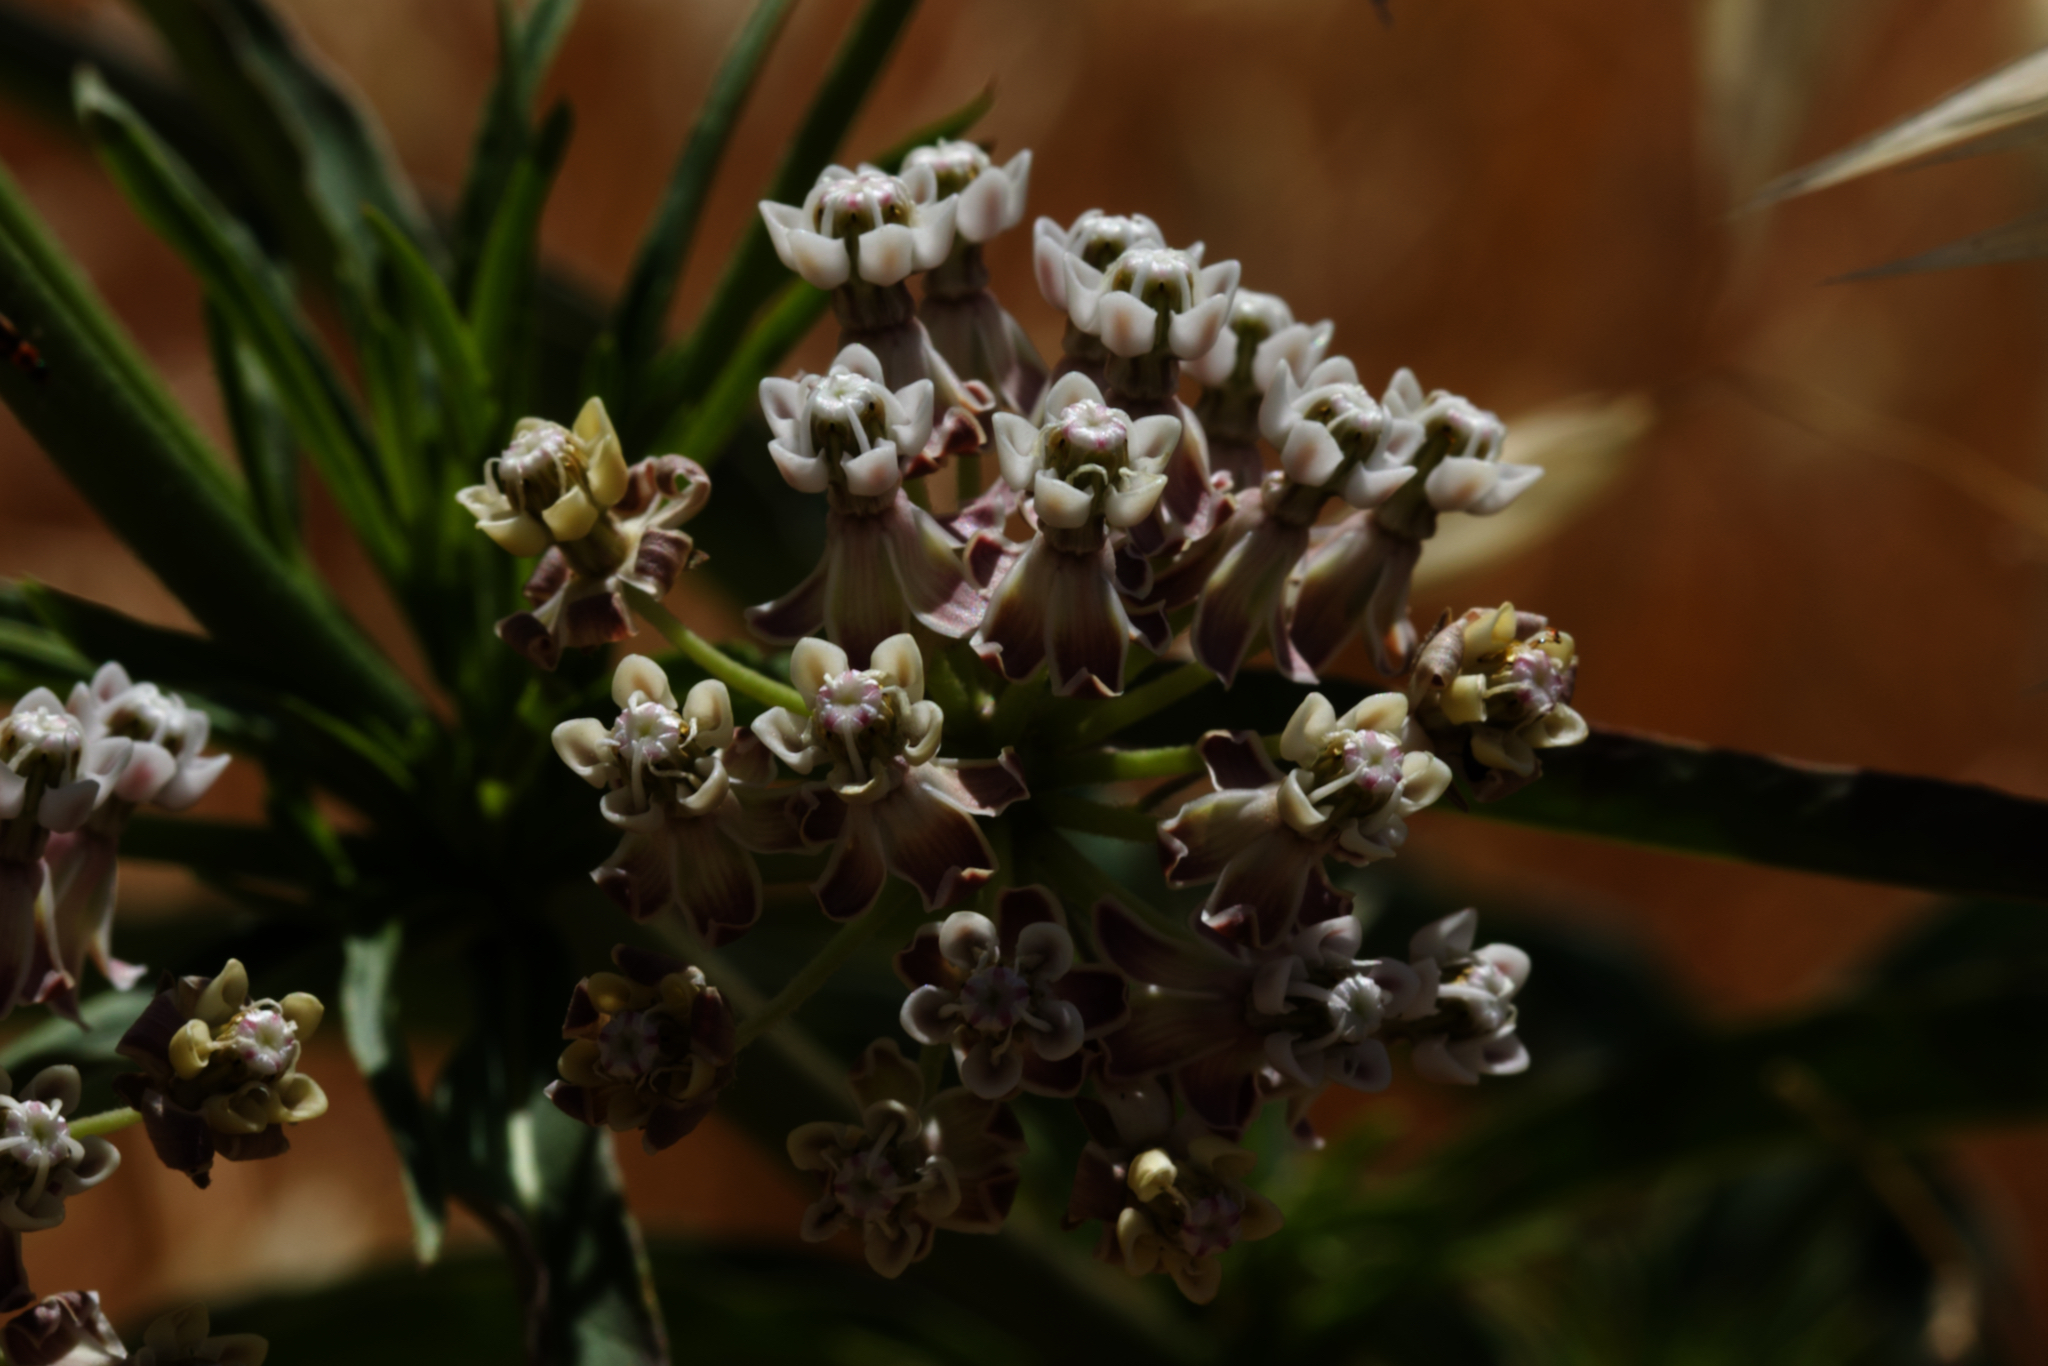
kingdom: Plantae
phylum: Tracheophyta
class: Magnoliopsida
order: Gentianales
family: Apocynaceae
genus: Asclepias
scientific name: Asclepias fascicularis
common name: Mexican milkweed
